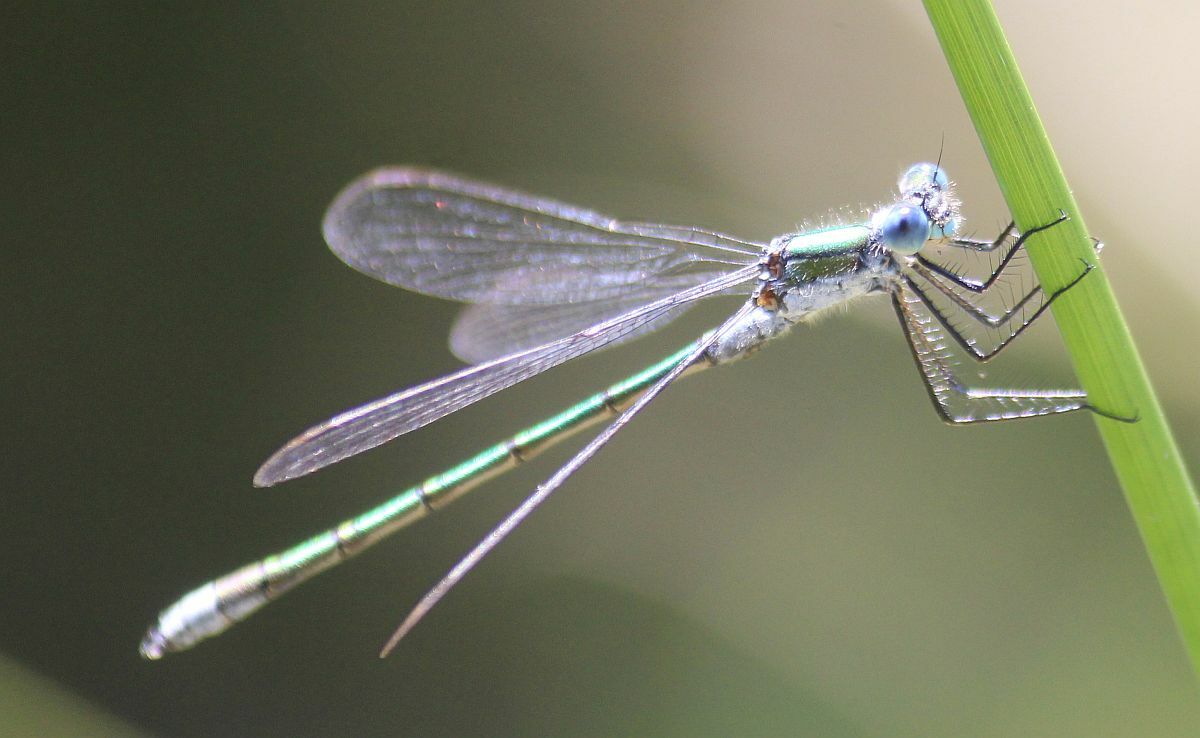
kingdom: Animalia
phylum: Arthropoda
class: Insecta
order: Odonata
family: Lestidae
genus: Lestes
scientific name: Lestes sponsa
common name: Common spreadwing
